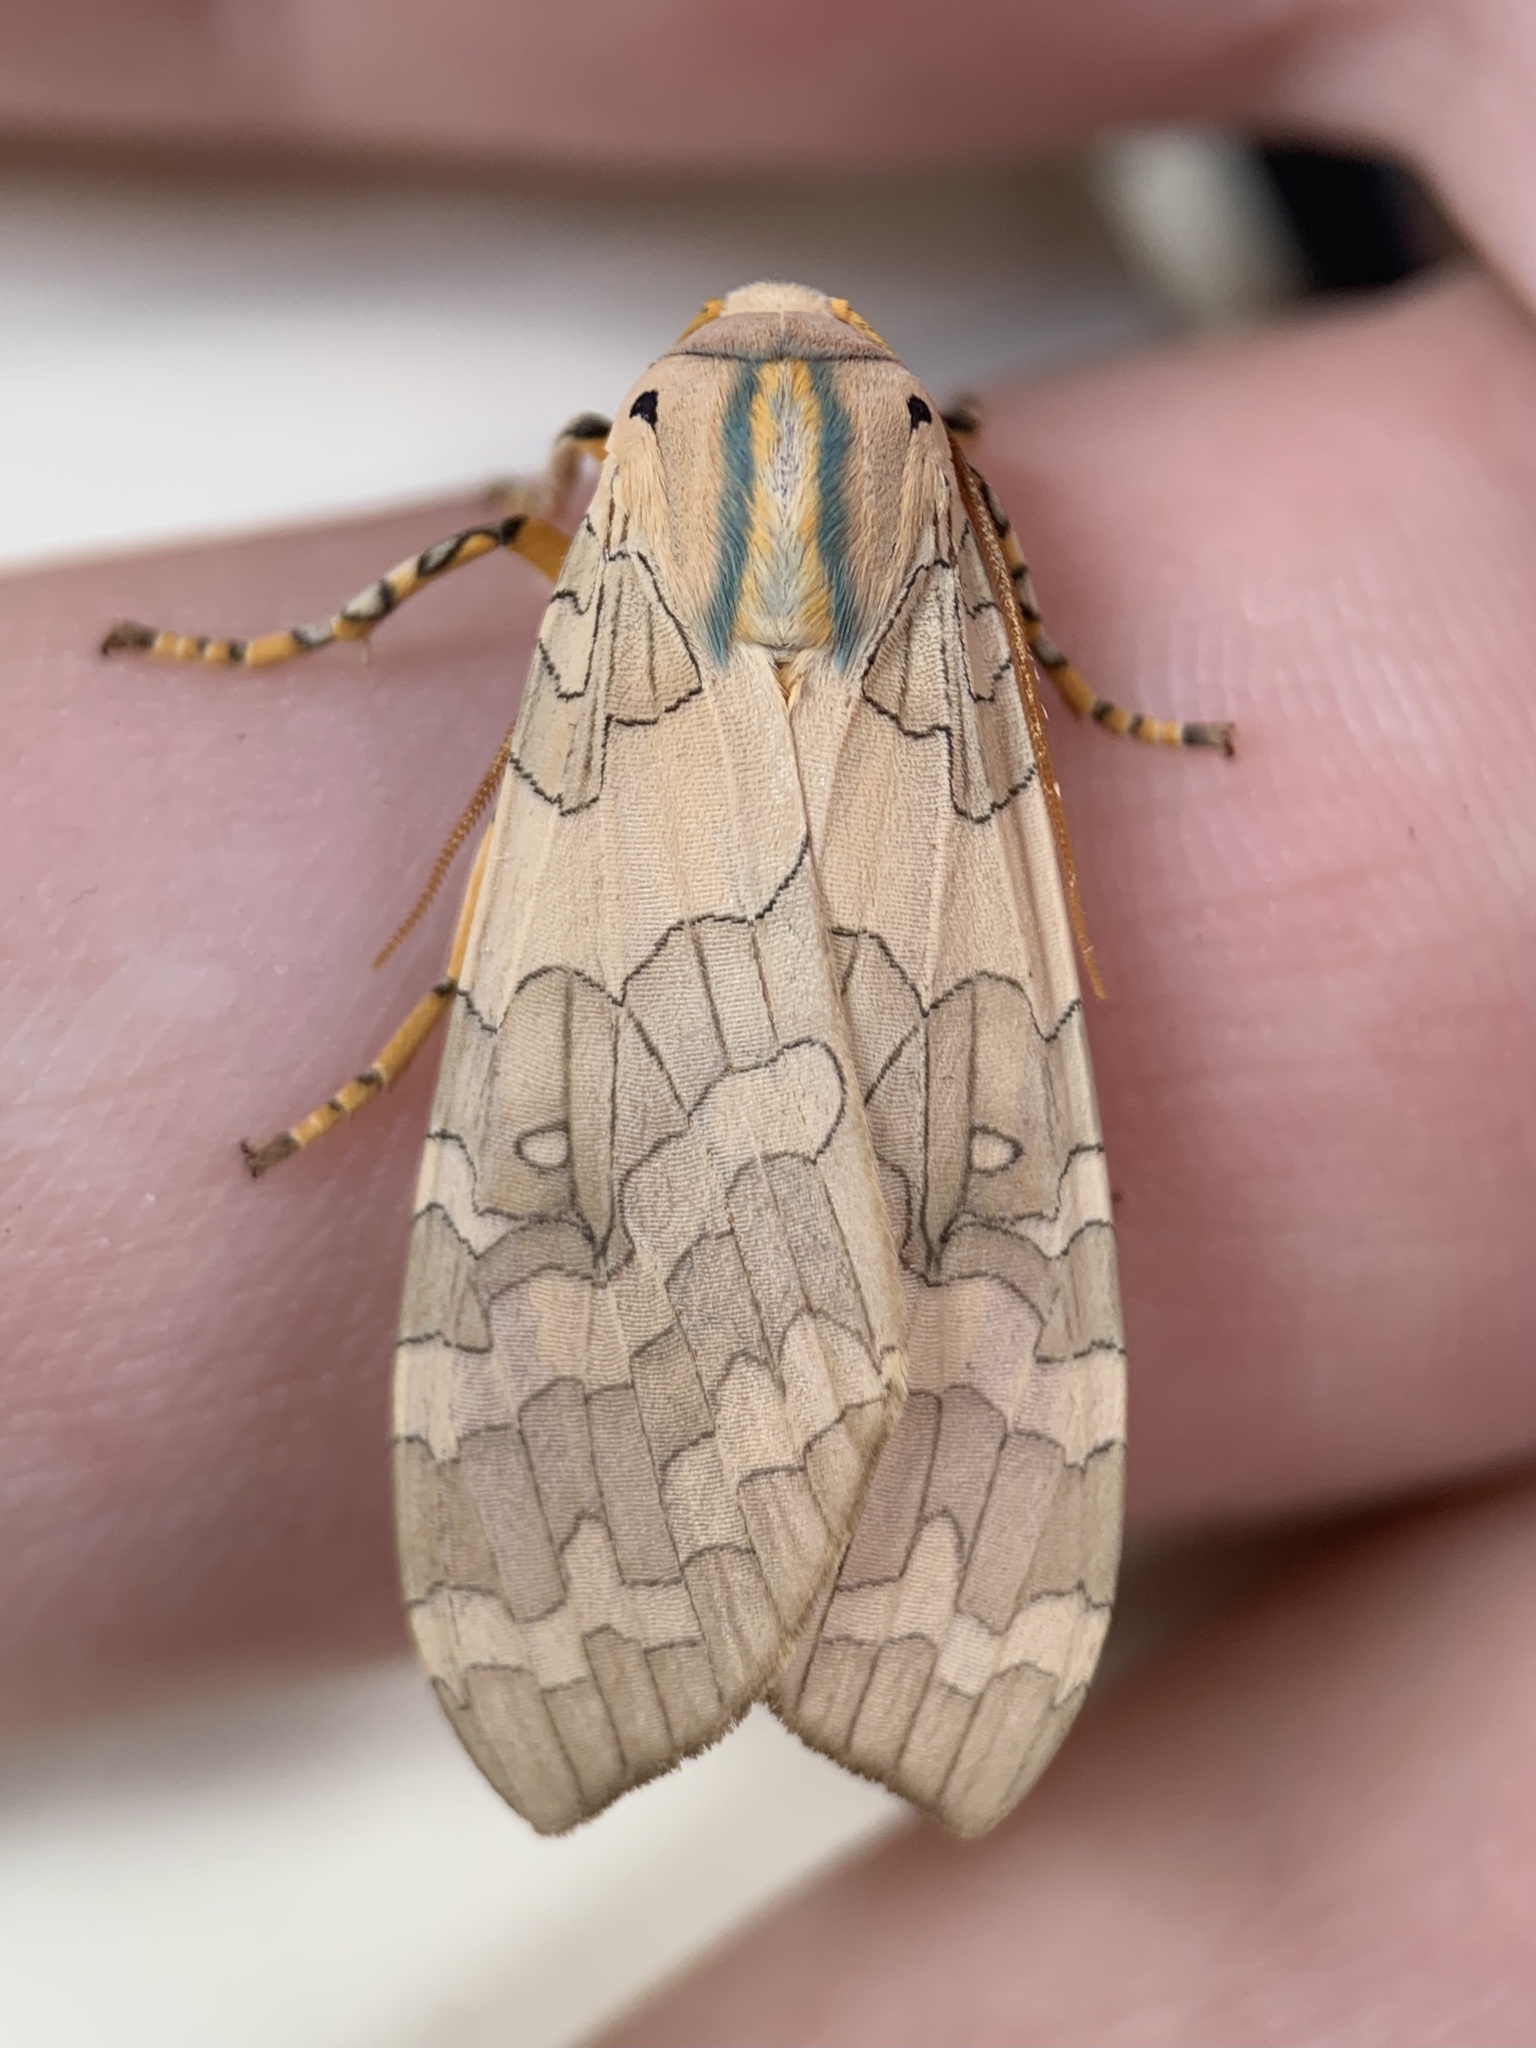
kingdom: Animalia
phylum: Arthropoda
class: Insecta
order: Lepidoptera
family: Erebidae
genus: Halysidota
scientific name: Halysidota
